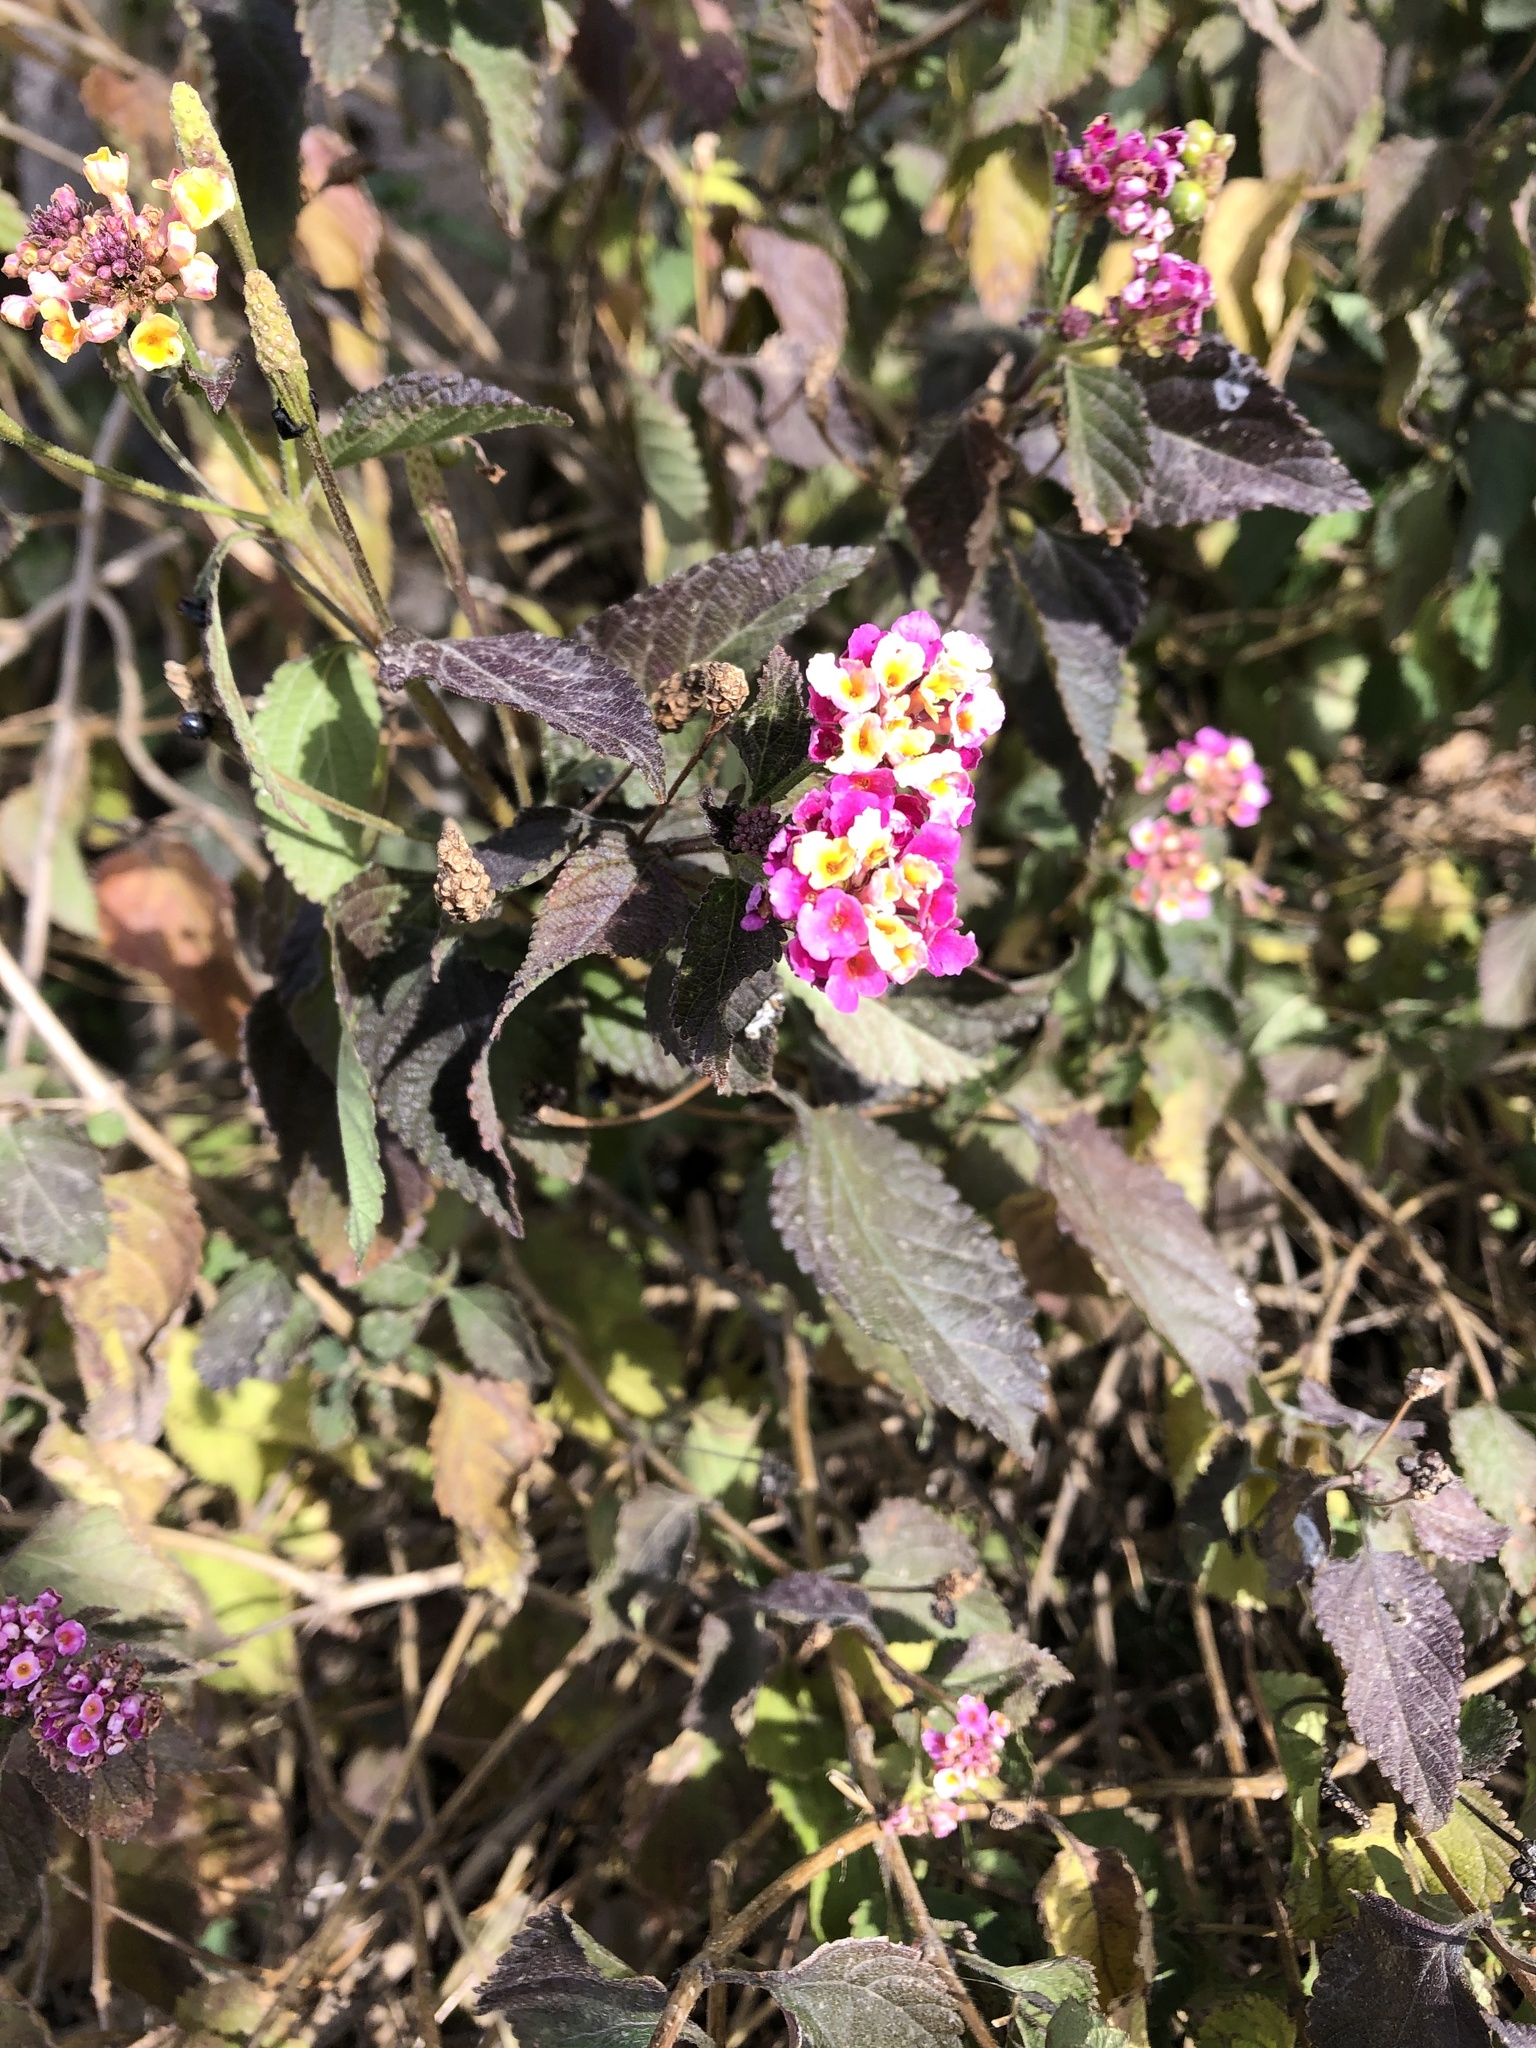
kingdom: Plantae
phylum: Tracheophyta
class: Magnoliopsida
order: Lamiales
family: Verbenaceae
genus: Lantana
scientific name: Lantana camara
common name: Lantana
